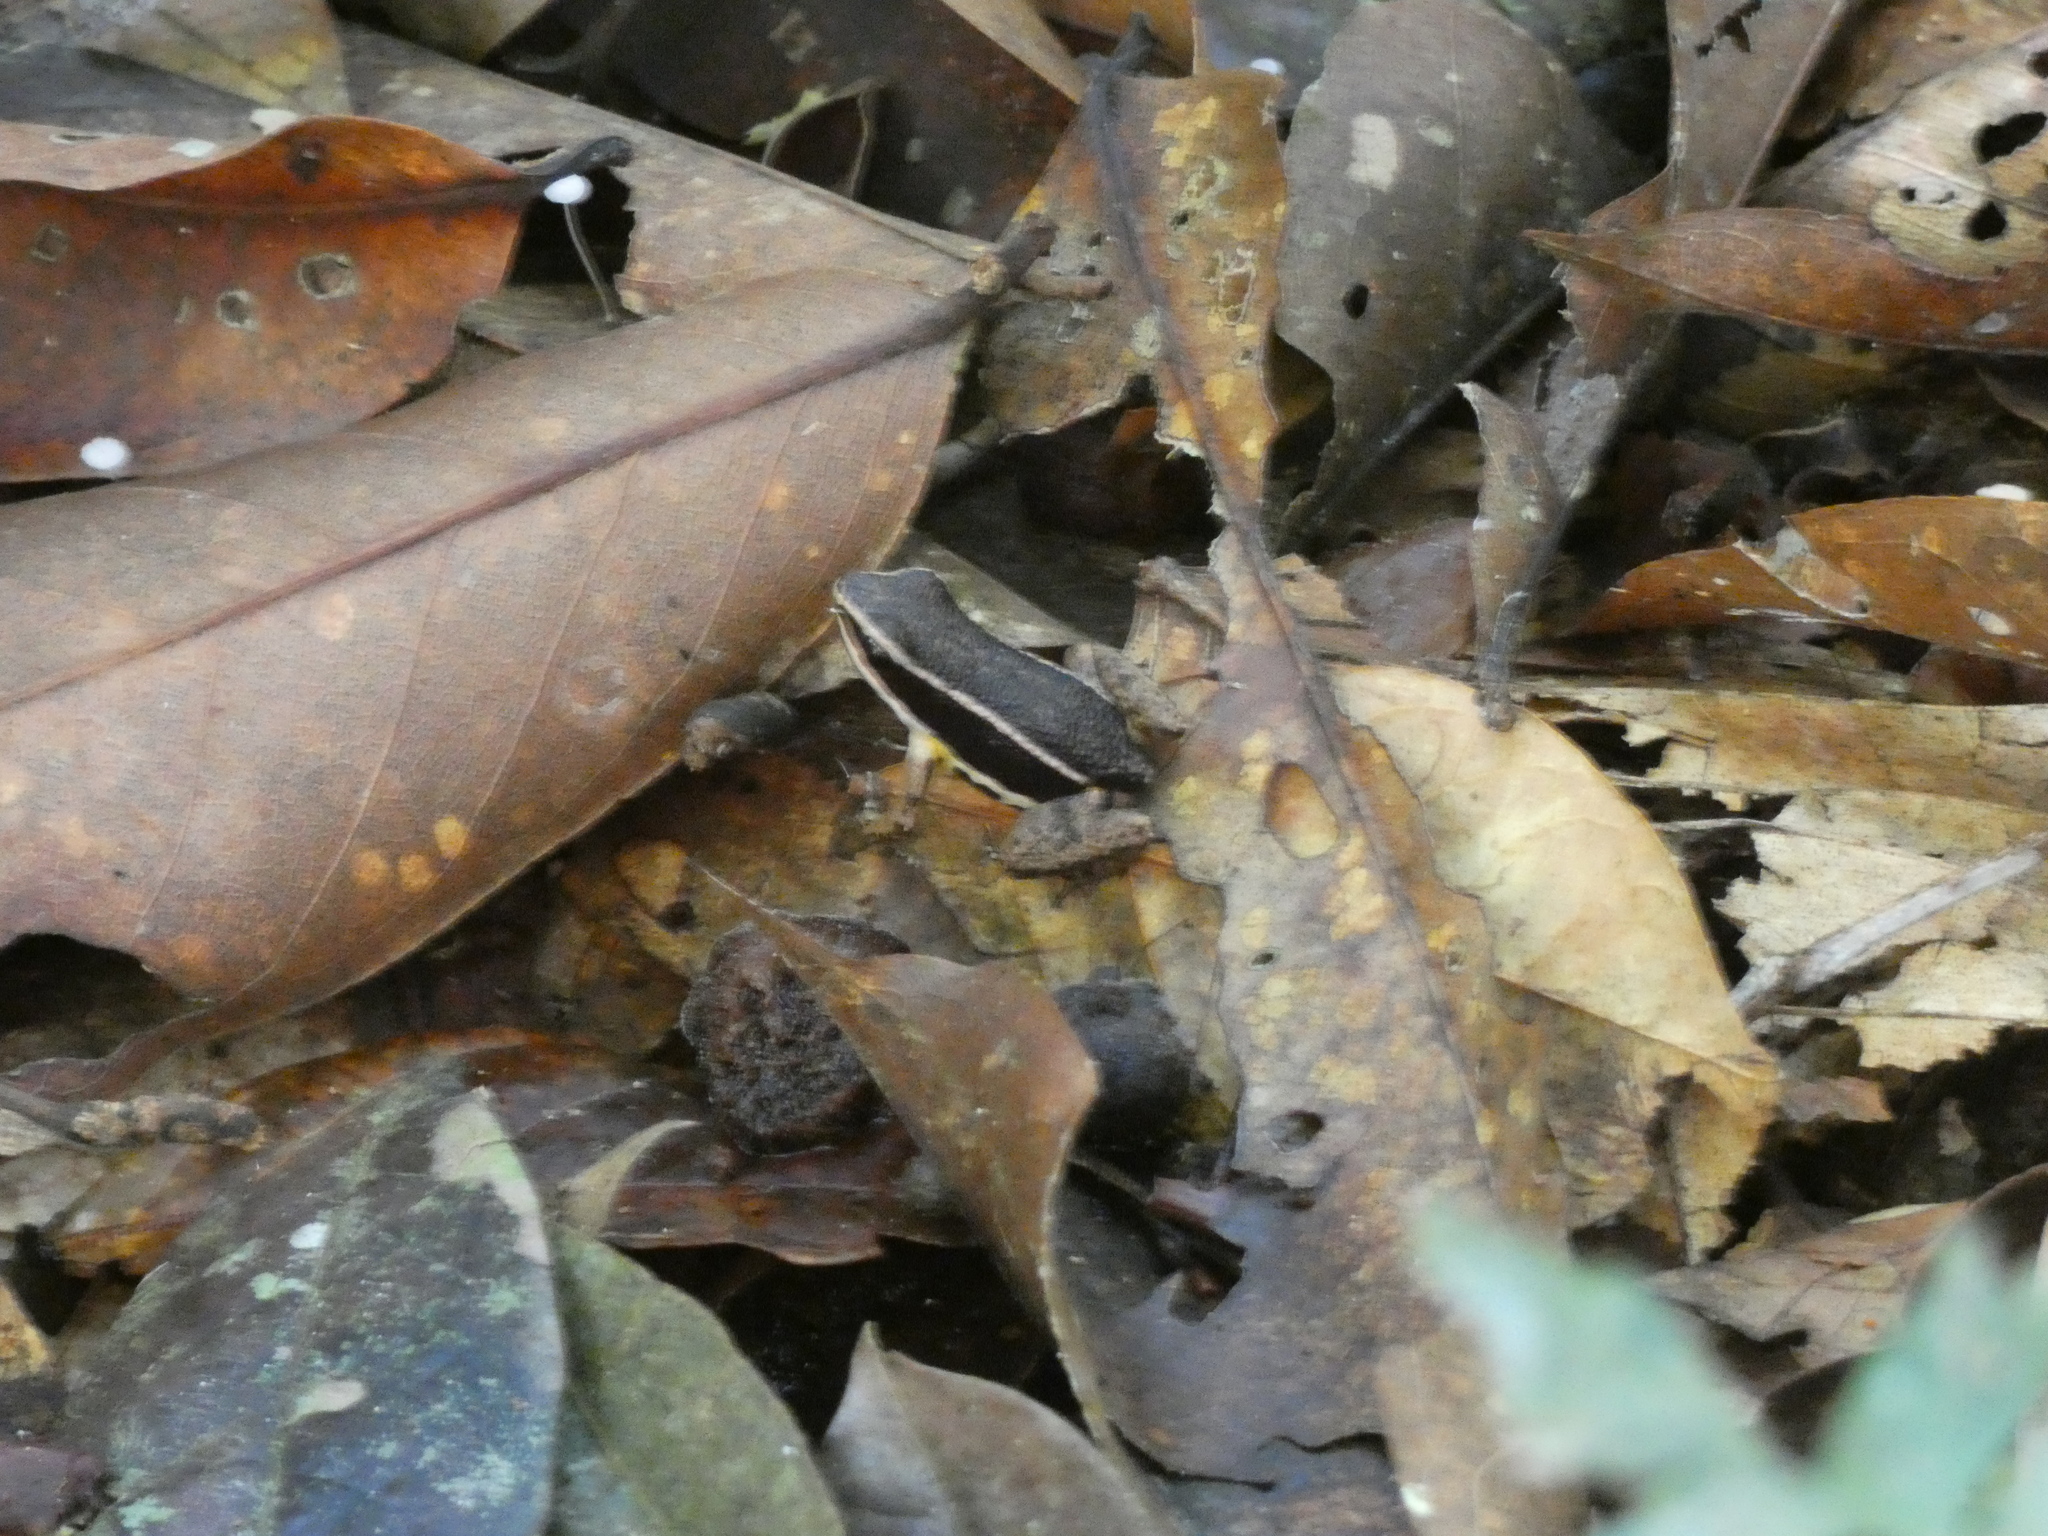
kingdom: Animalia
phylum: Chordata
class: Amphibia
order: Anura
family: Aromobatidae
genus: Allobates
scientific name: Allobates femoralis
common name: Brilliant-thighed poison frog
